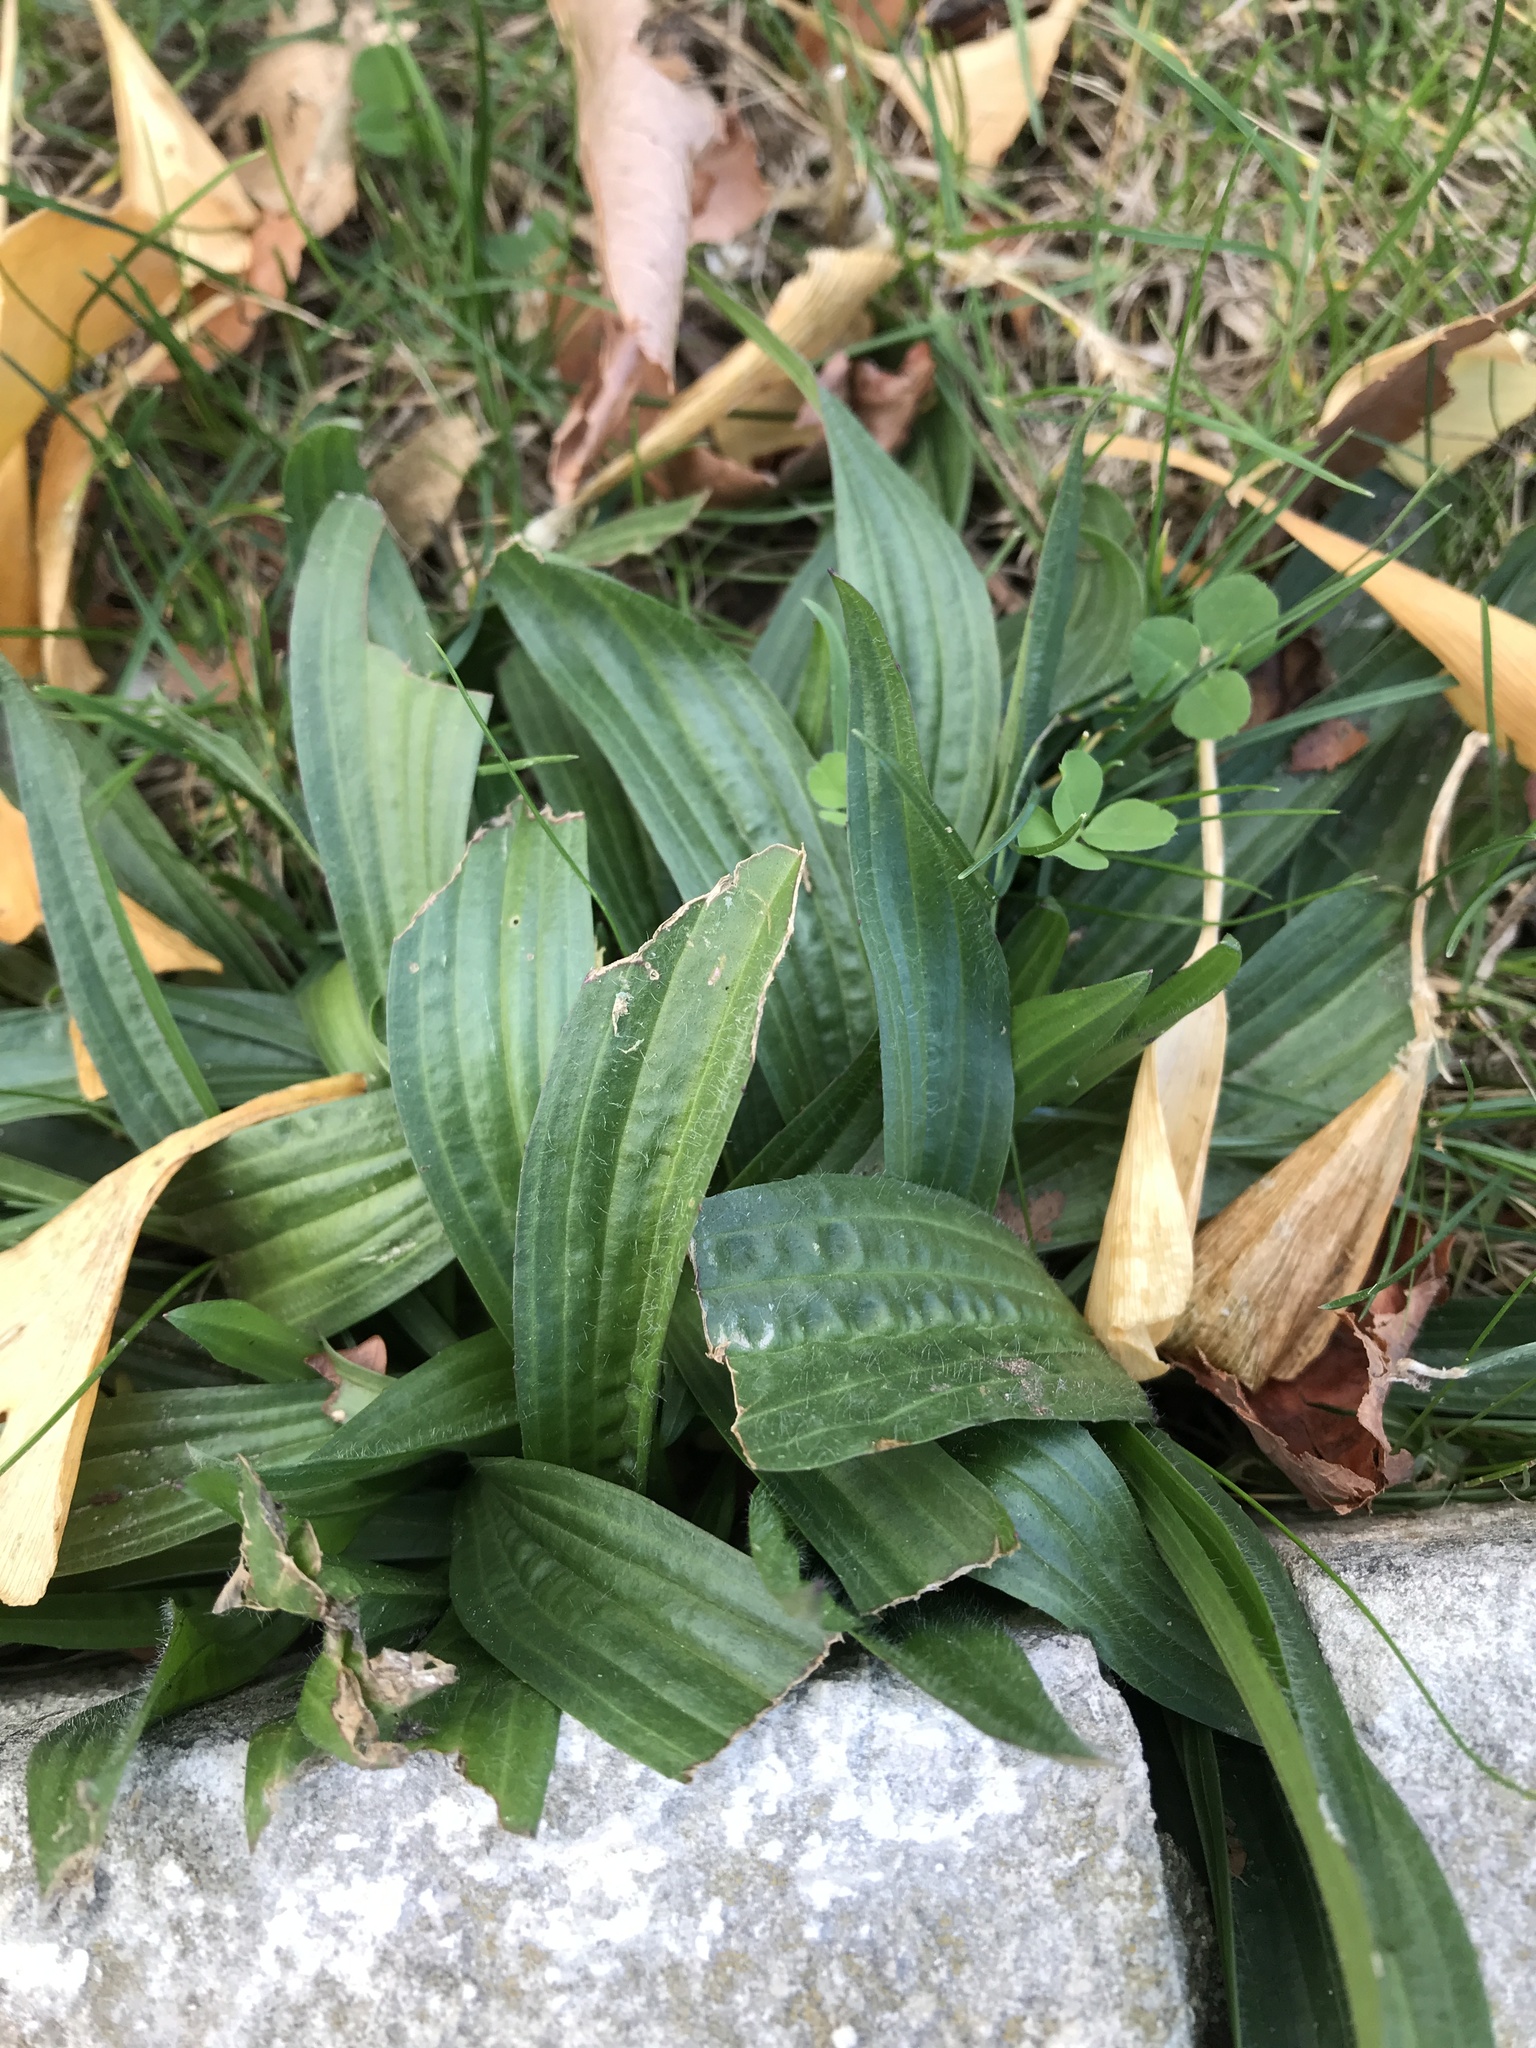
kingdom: Plantae
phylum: Tracheophyta
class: Magnoliopsida
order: Lamiales
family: Plantaginaceae
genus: Plantago
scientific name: Plantago lanceolata
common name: Ribwort plantain
